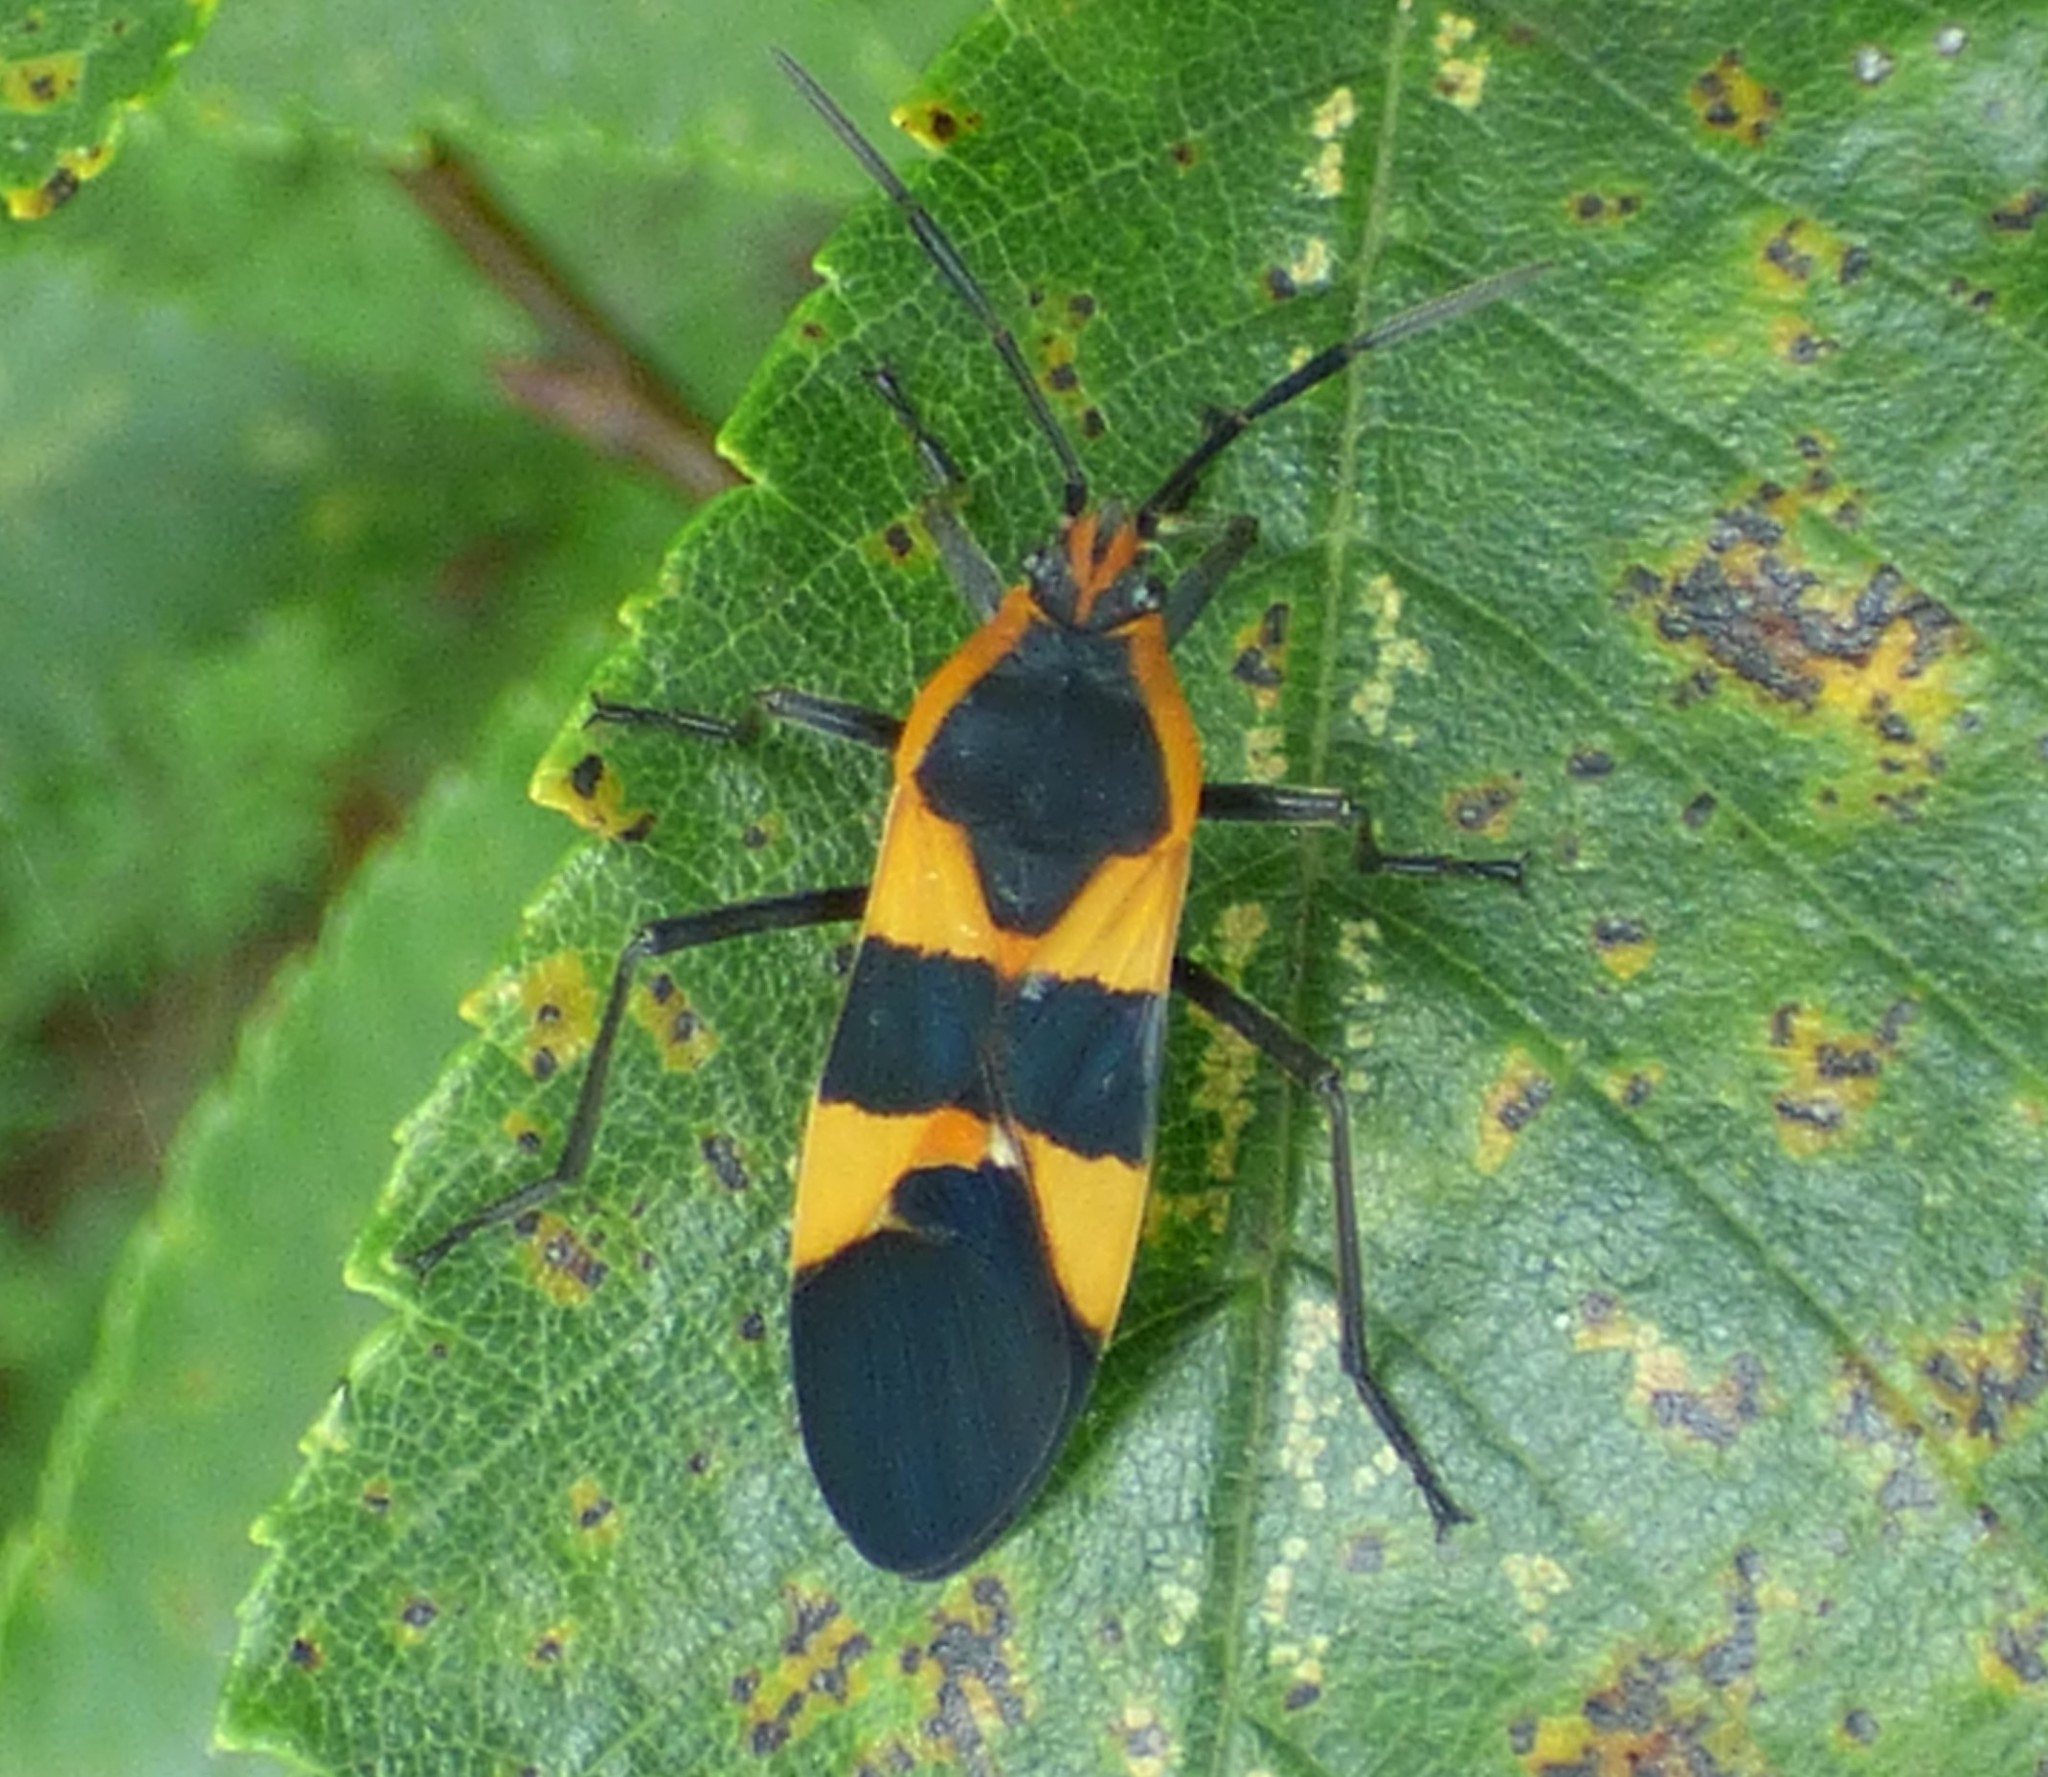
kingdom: Animalia
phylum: Arthropoda
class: Insecta
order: Hemiptera
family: Lygaeidae
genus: Oncopeltus
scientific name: Oncopeltus fasciatus
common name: Large milkweed bug
